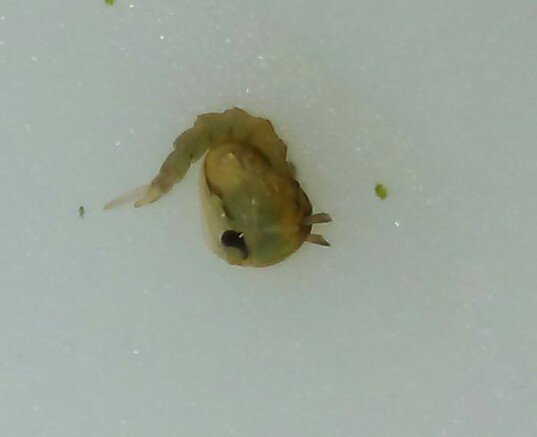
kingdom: Animalia
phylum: Arthropoda
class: Insecta
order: Diptera
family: Culicidae
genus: Aedes
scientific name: Aedes vexans
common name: Inland floodwater mosquito
